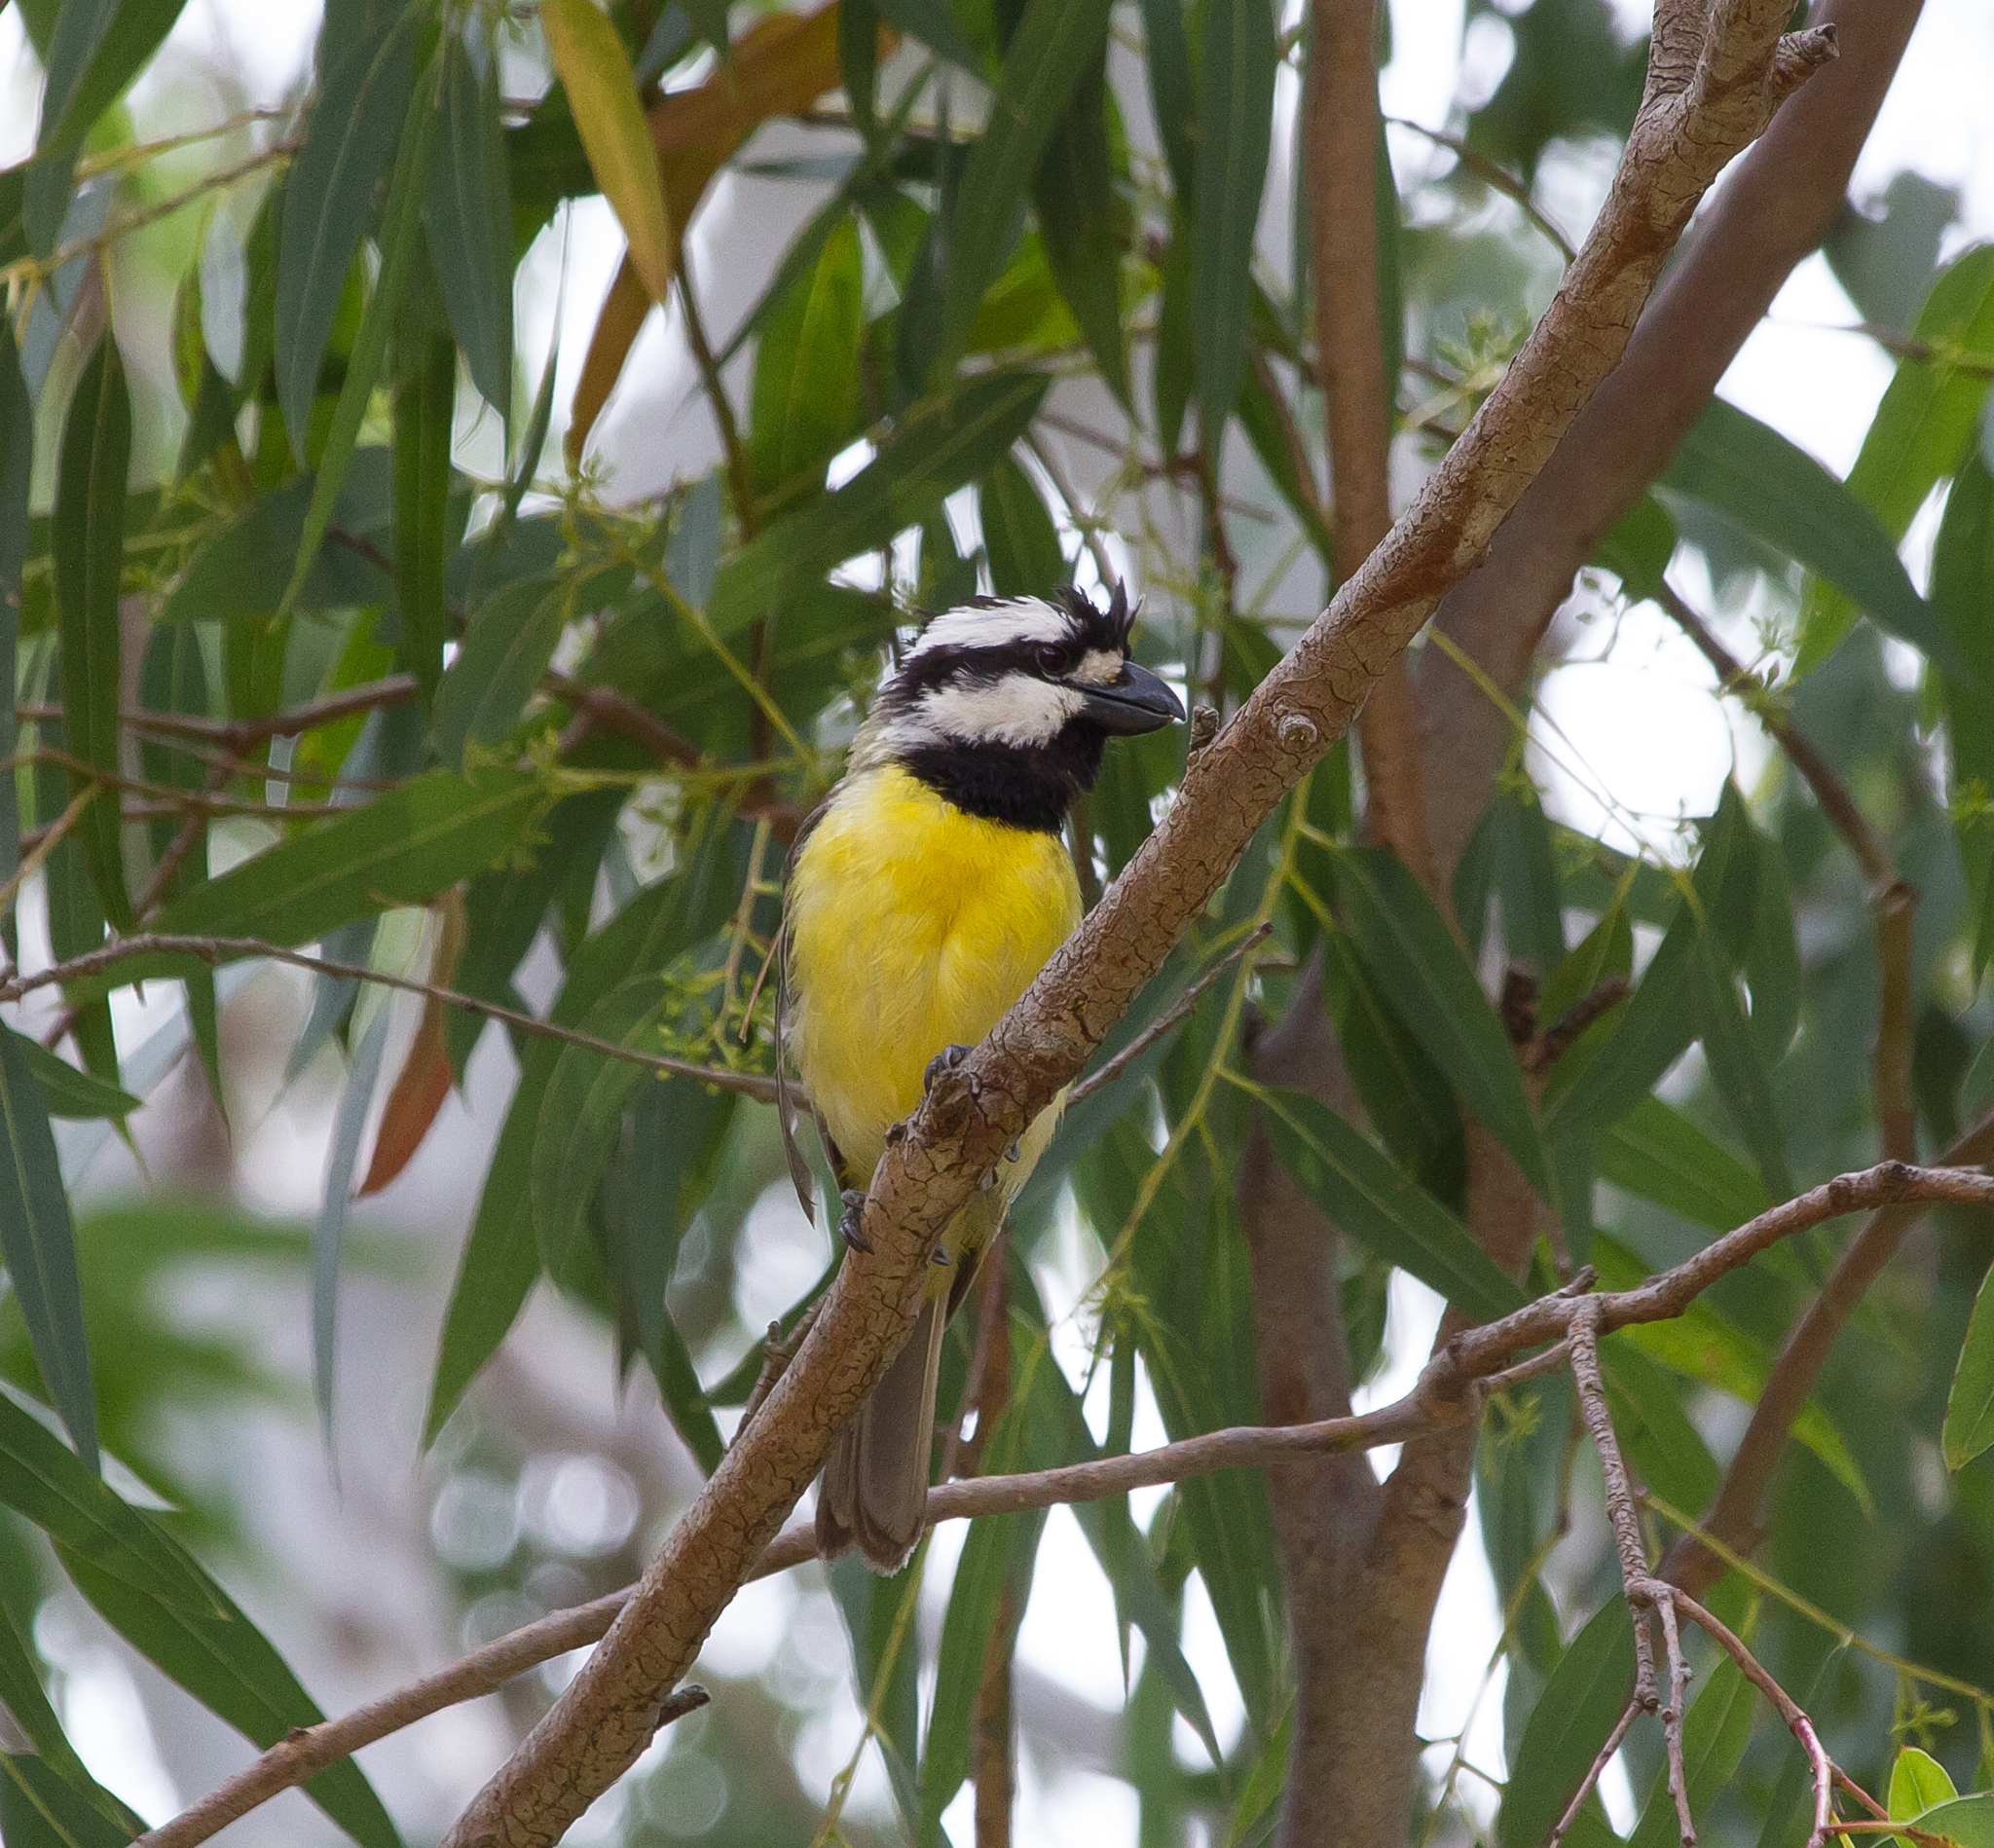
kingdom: Animalia
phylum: Chordata
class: Aves
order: Passeriformes
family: Pachycephalidae
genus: Falcunculus
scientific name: Falcunculus frontatus
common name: Crested shriketit
